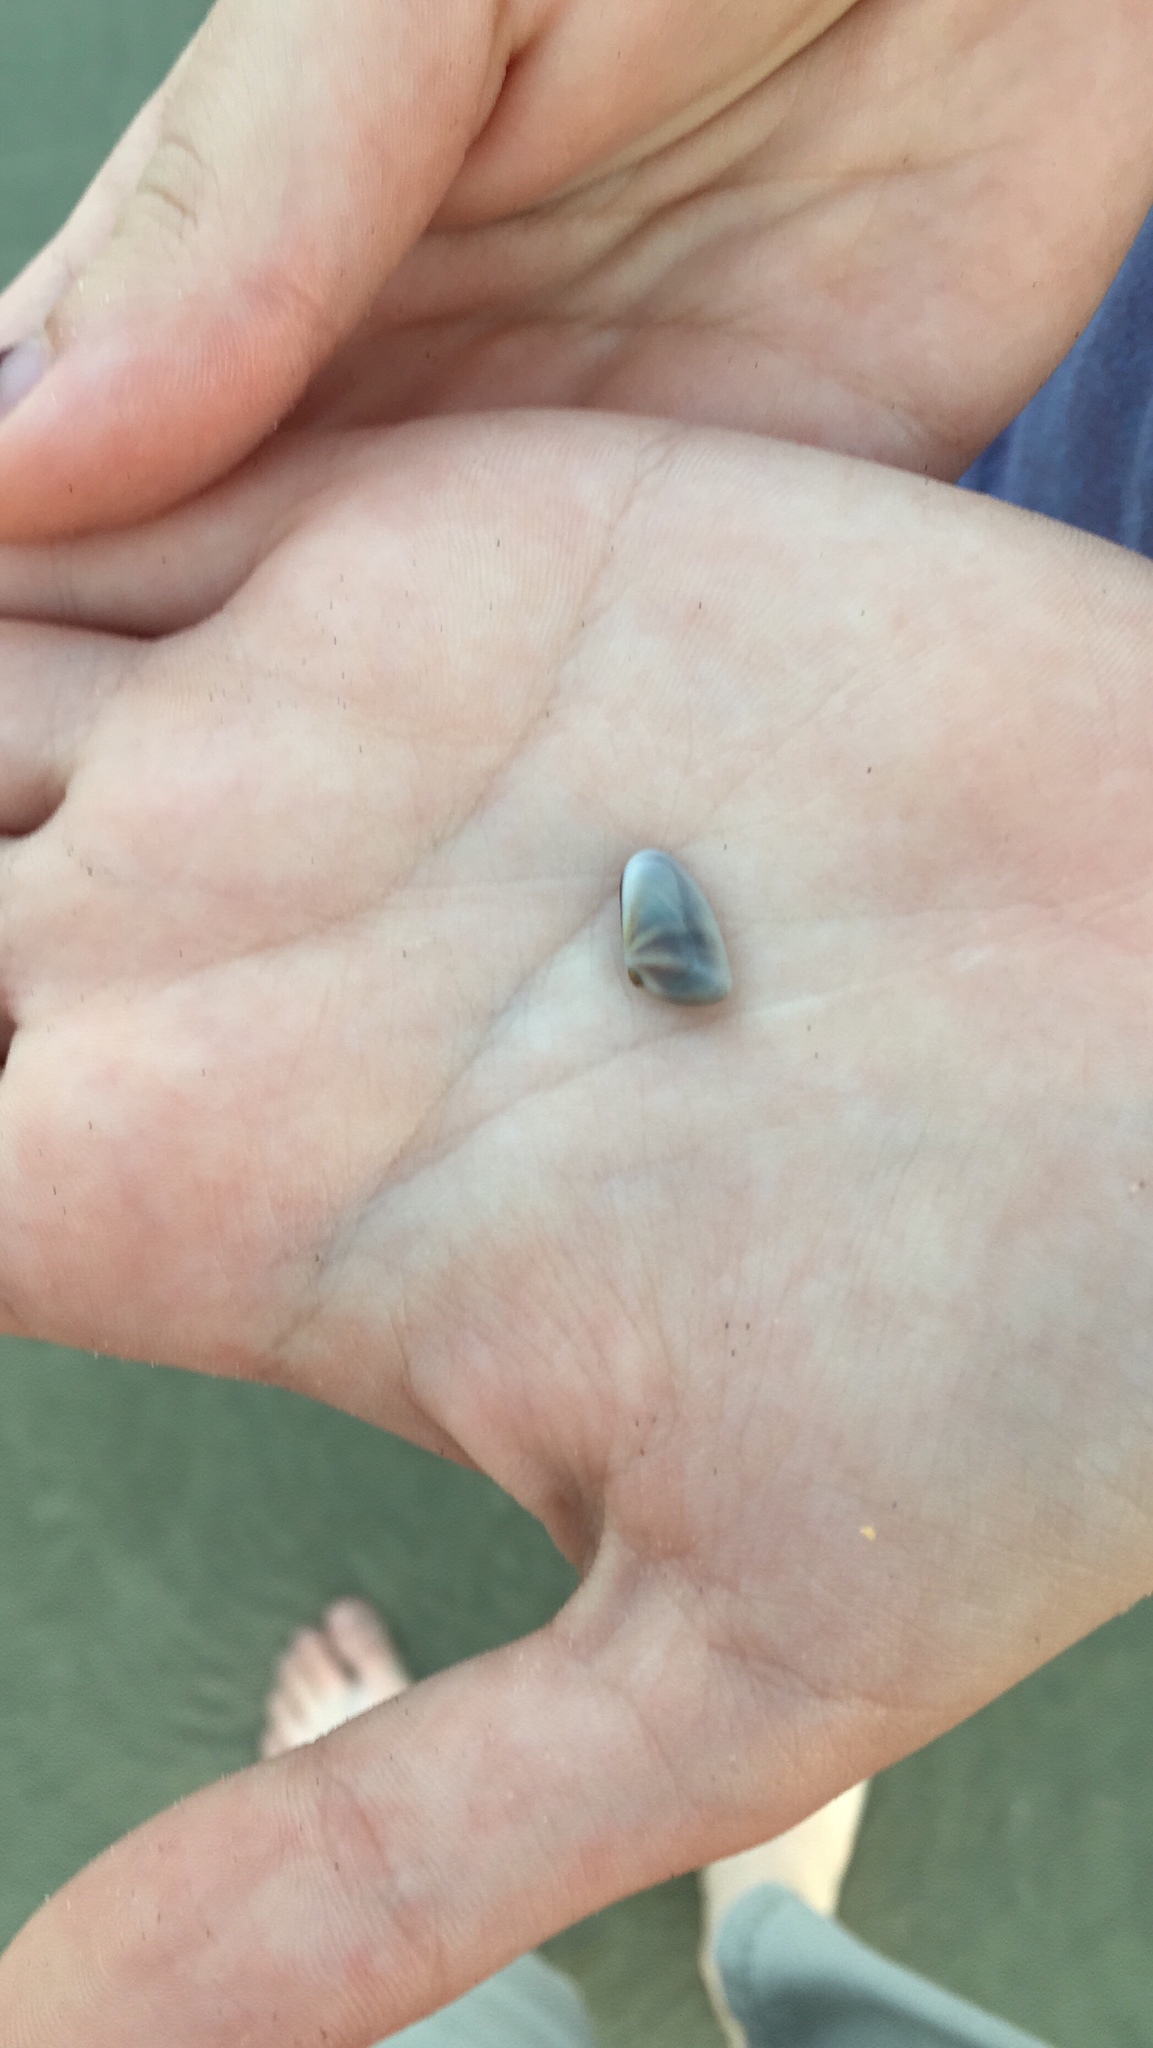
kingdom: Animalia
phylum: Mollusca
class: Bivalvia
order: Cardiida
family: Donacidae
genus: Donax
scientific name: Donax variabilis
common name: Butterfly shell
